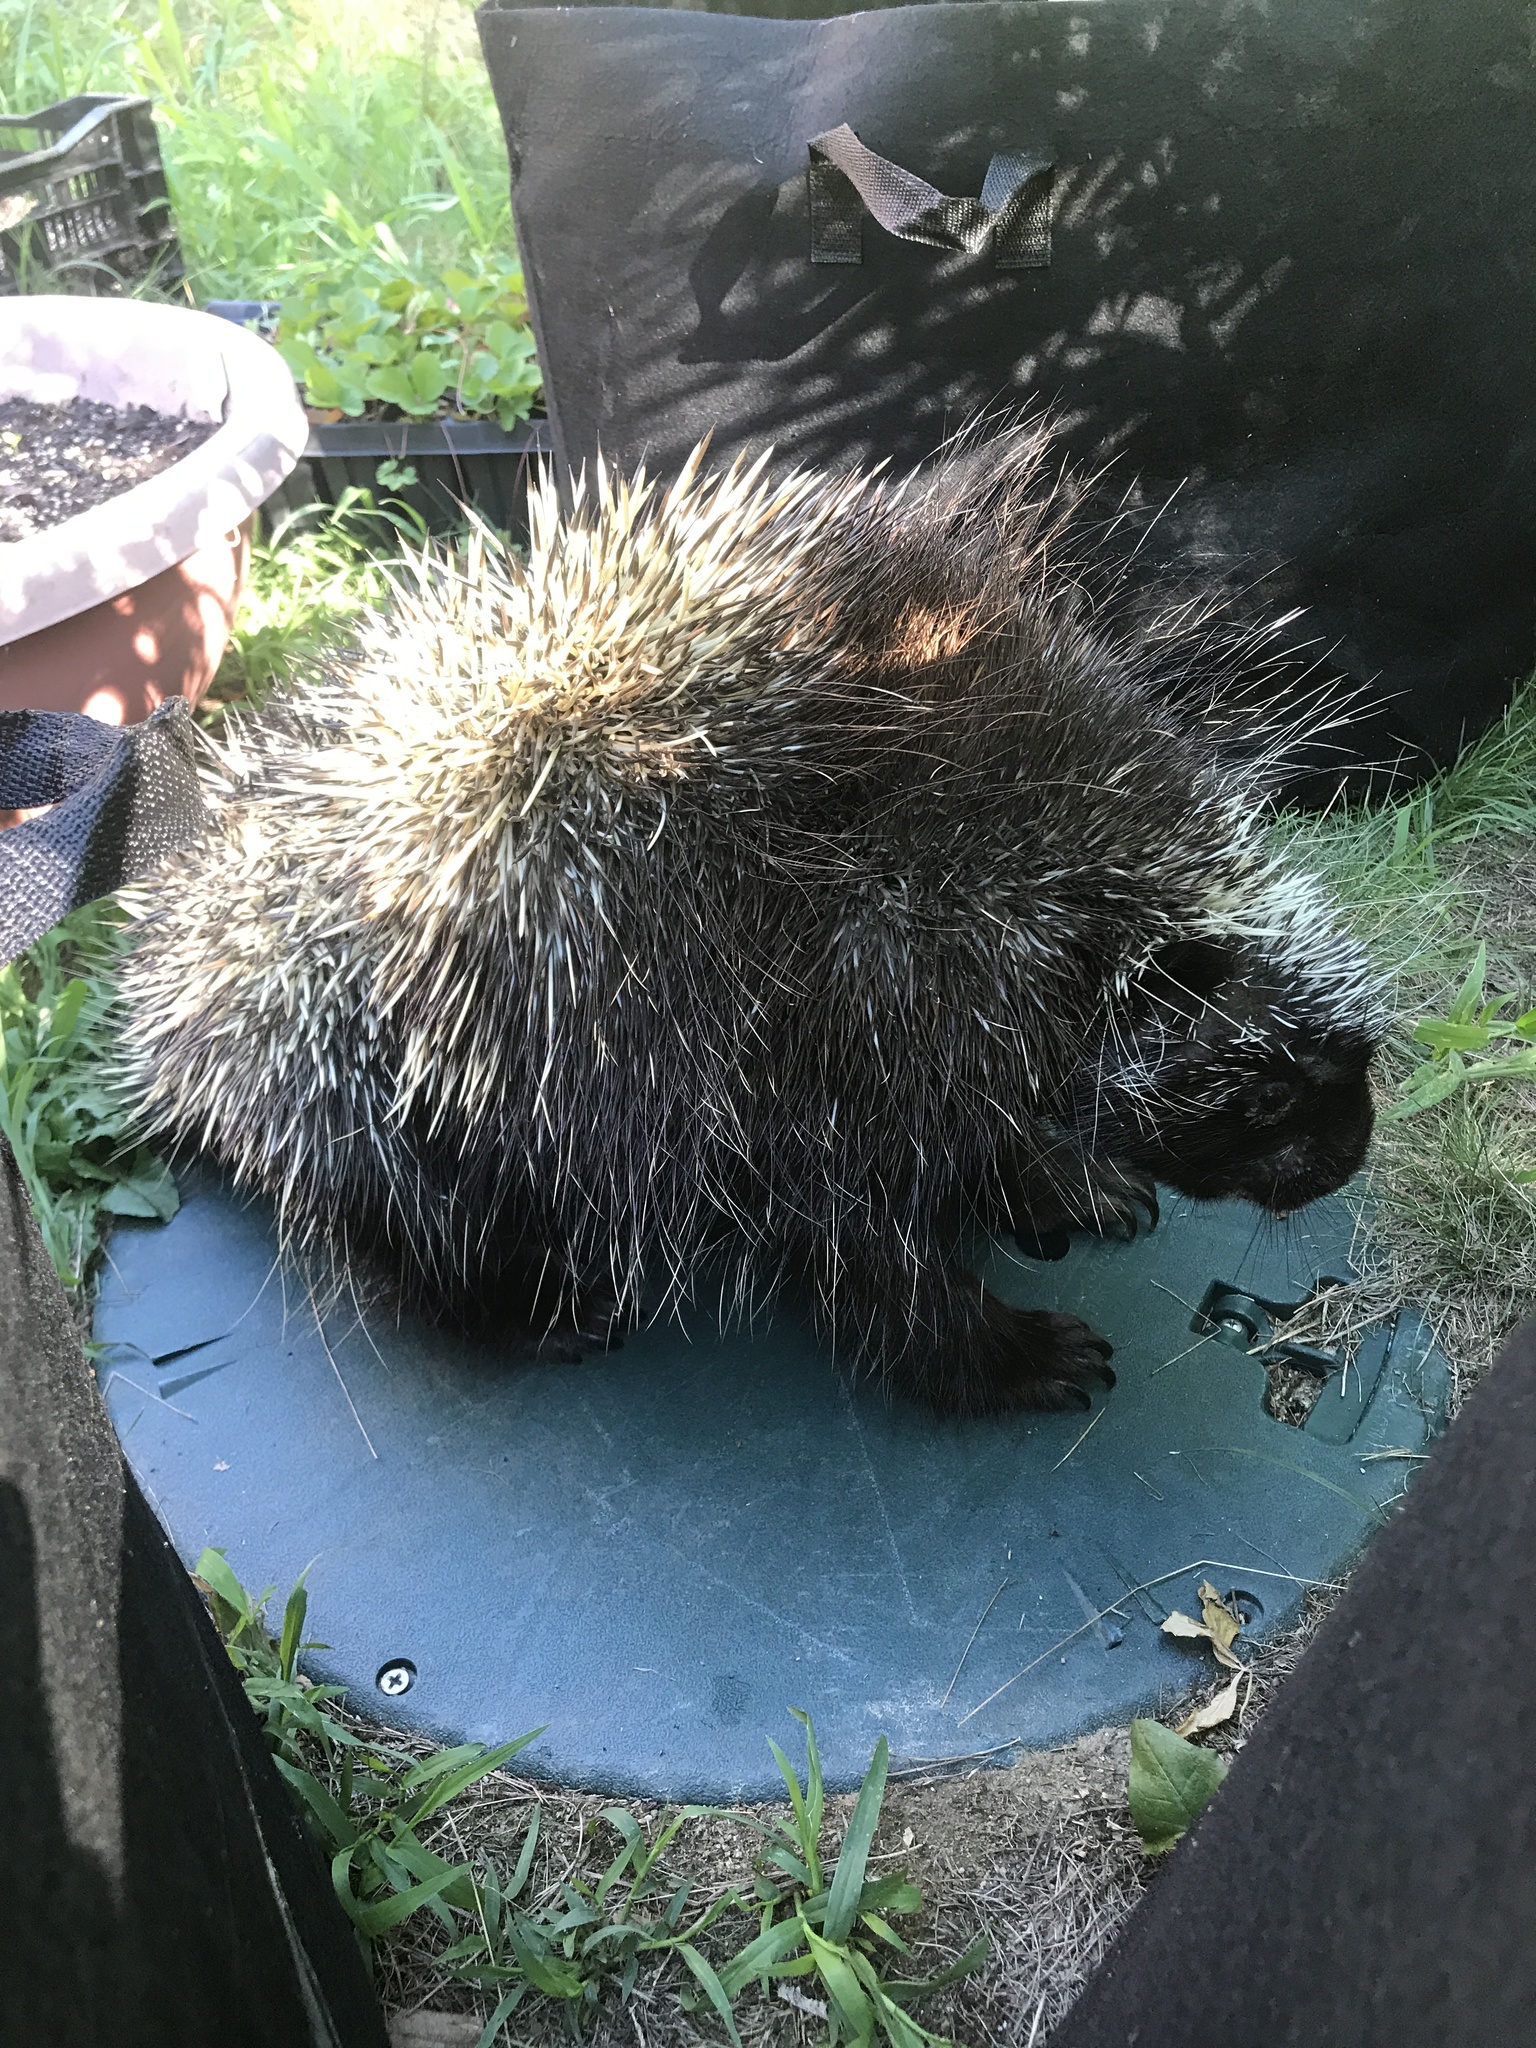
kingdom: Animalia
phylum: Chordata
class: Mammalia
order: Rodentia
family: Erethizontidae
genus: Erethizon
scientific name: Erethizon dorsatus
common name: North american porcupine
